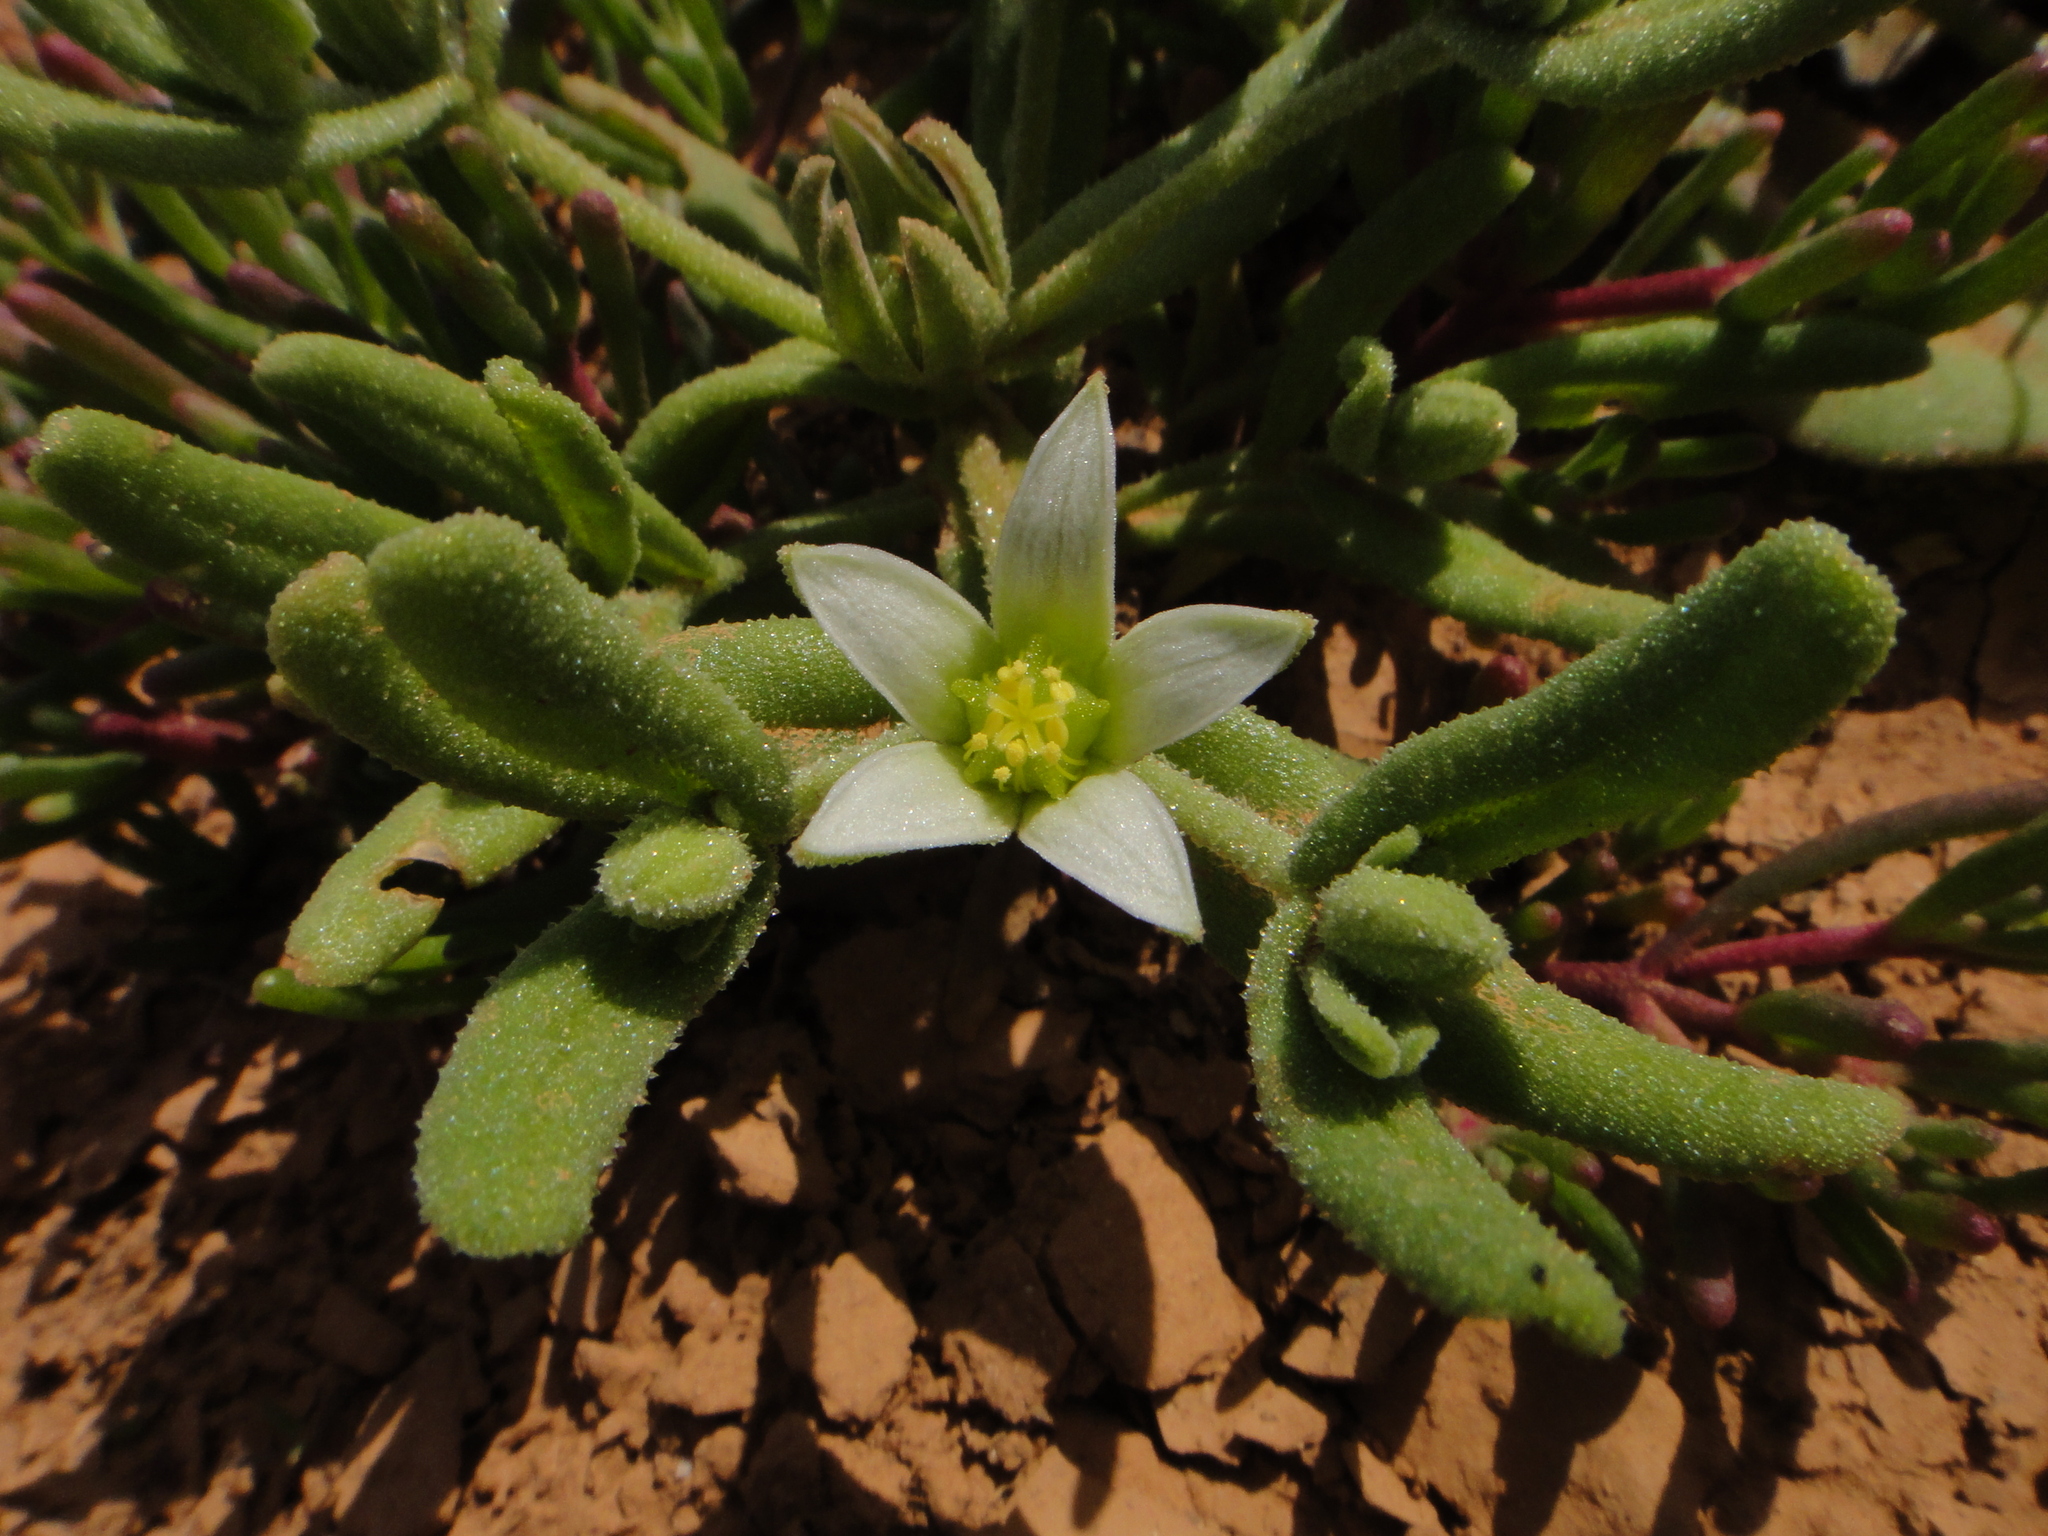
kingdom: Plantae
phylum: Tracheophyta
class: Magnoliopsida
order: Caryophyllales
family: Aizoaceae
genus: Aizoanthemopsis
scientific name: Aizoanthemopsis hispanica
